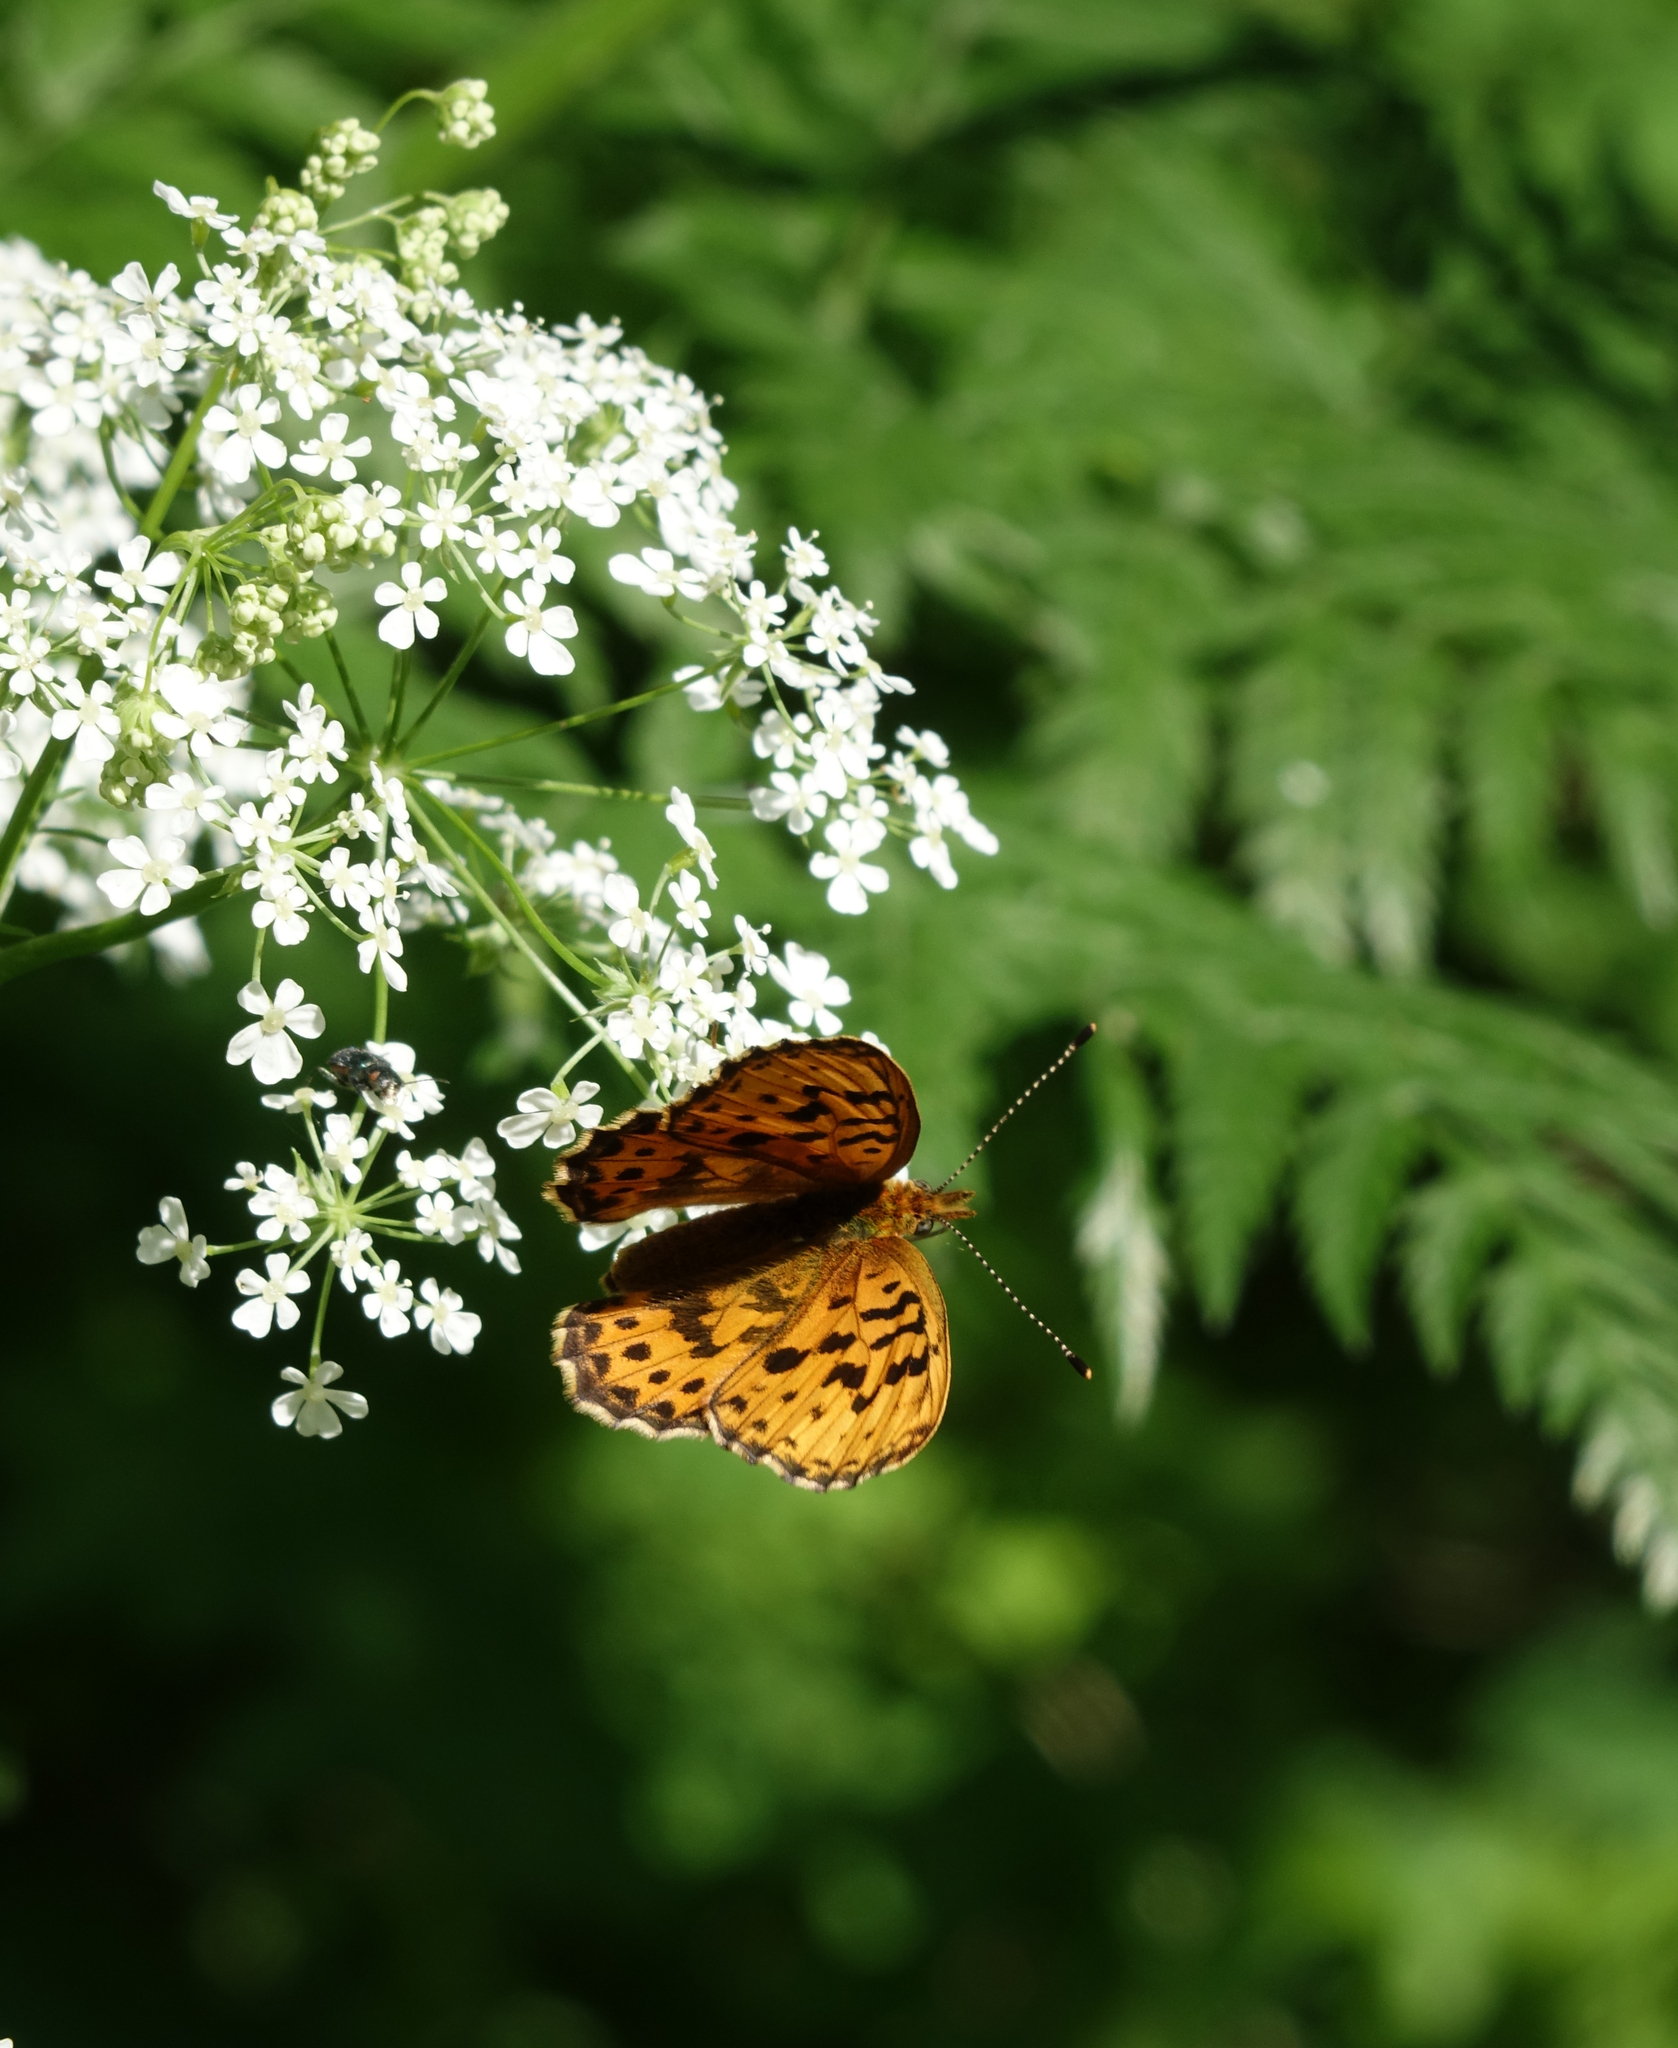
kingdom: Animalia
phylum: Arthropoda
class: Insecta
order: Lepidoptera
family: Nymphalidae
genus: Boloria
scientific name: Boloria thore
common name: Thor's fritillary
